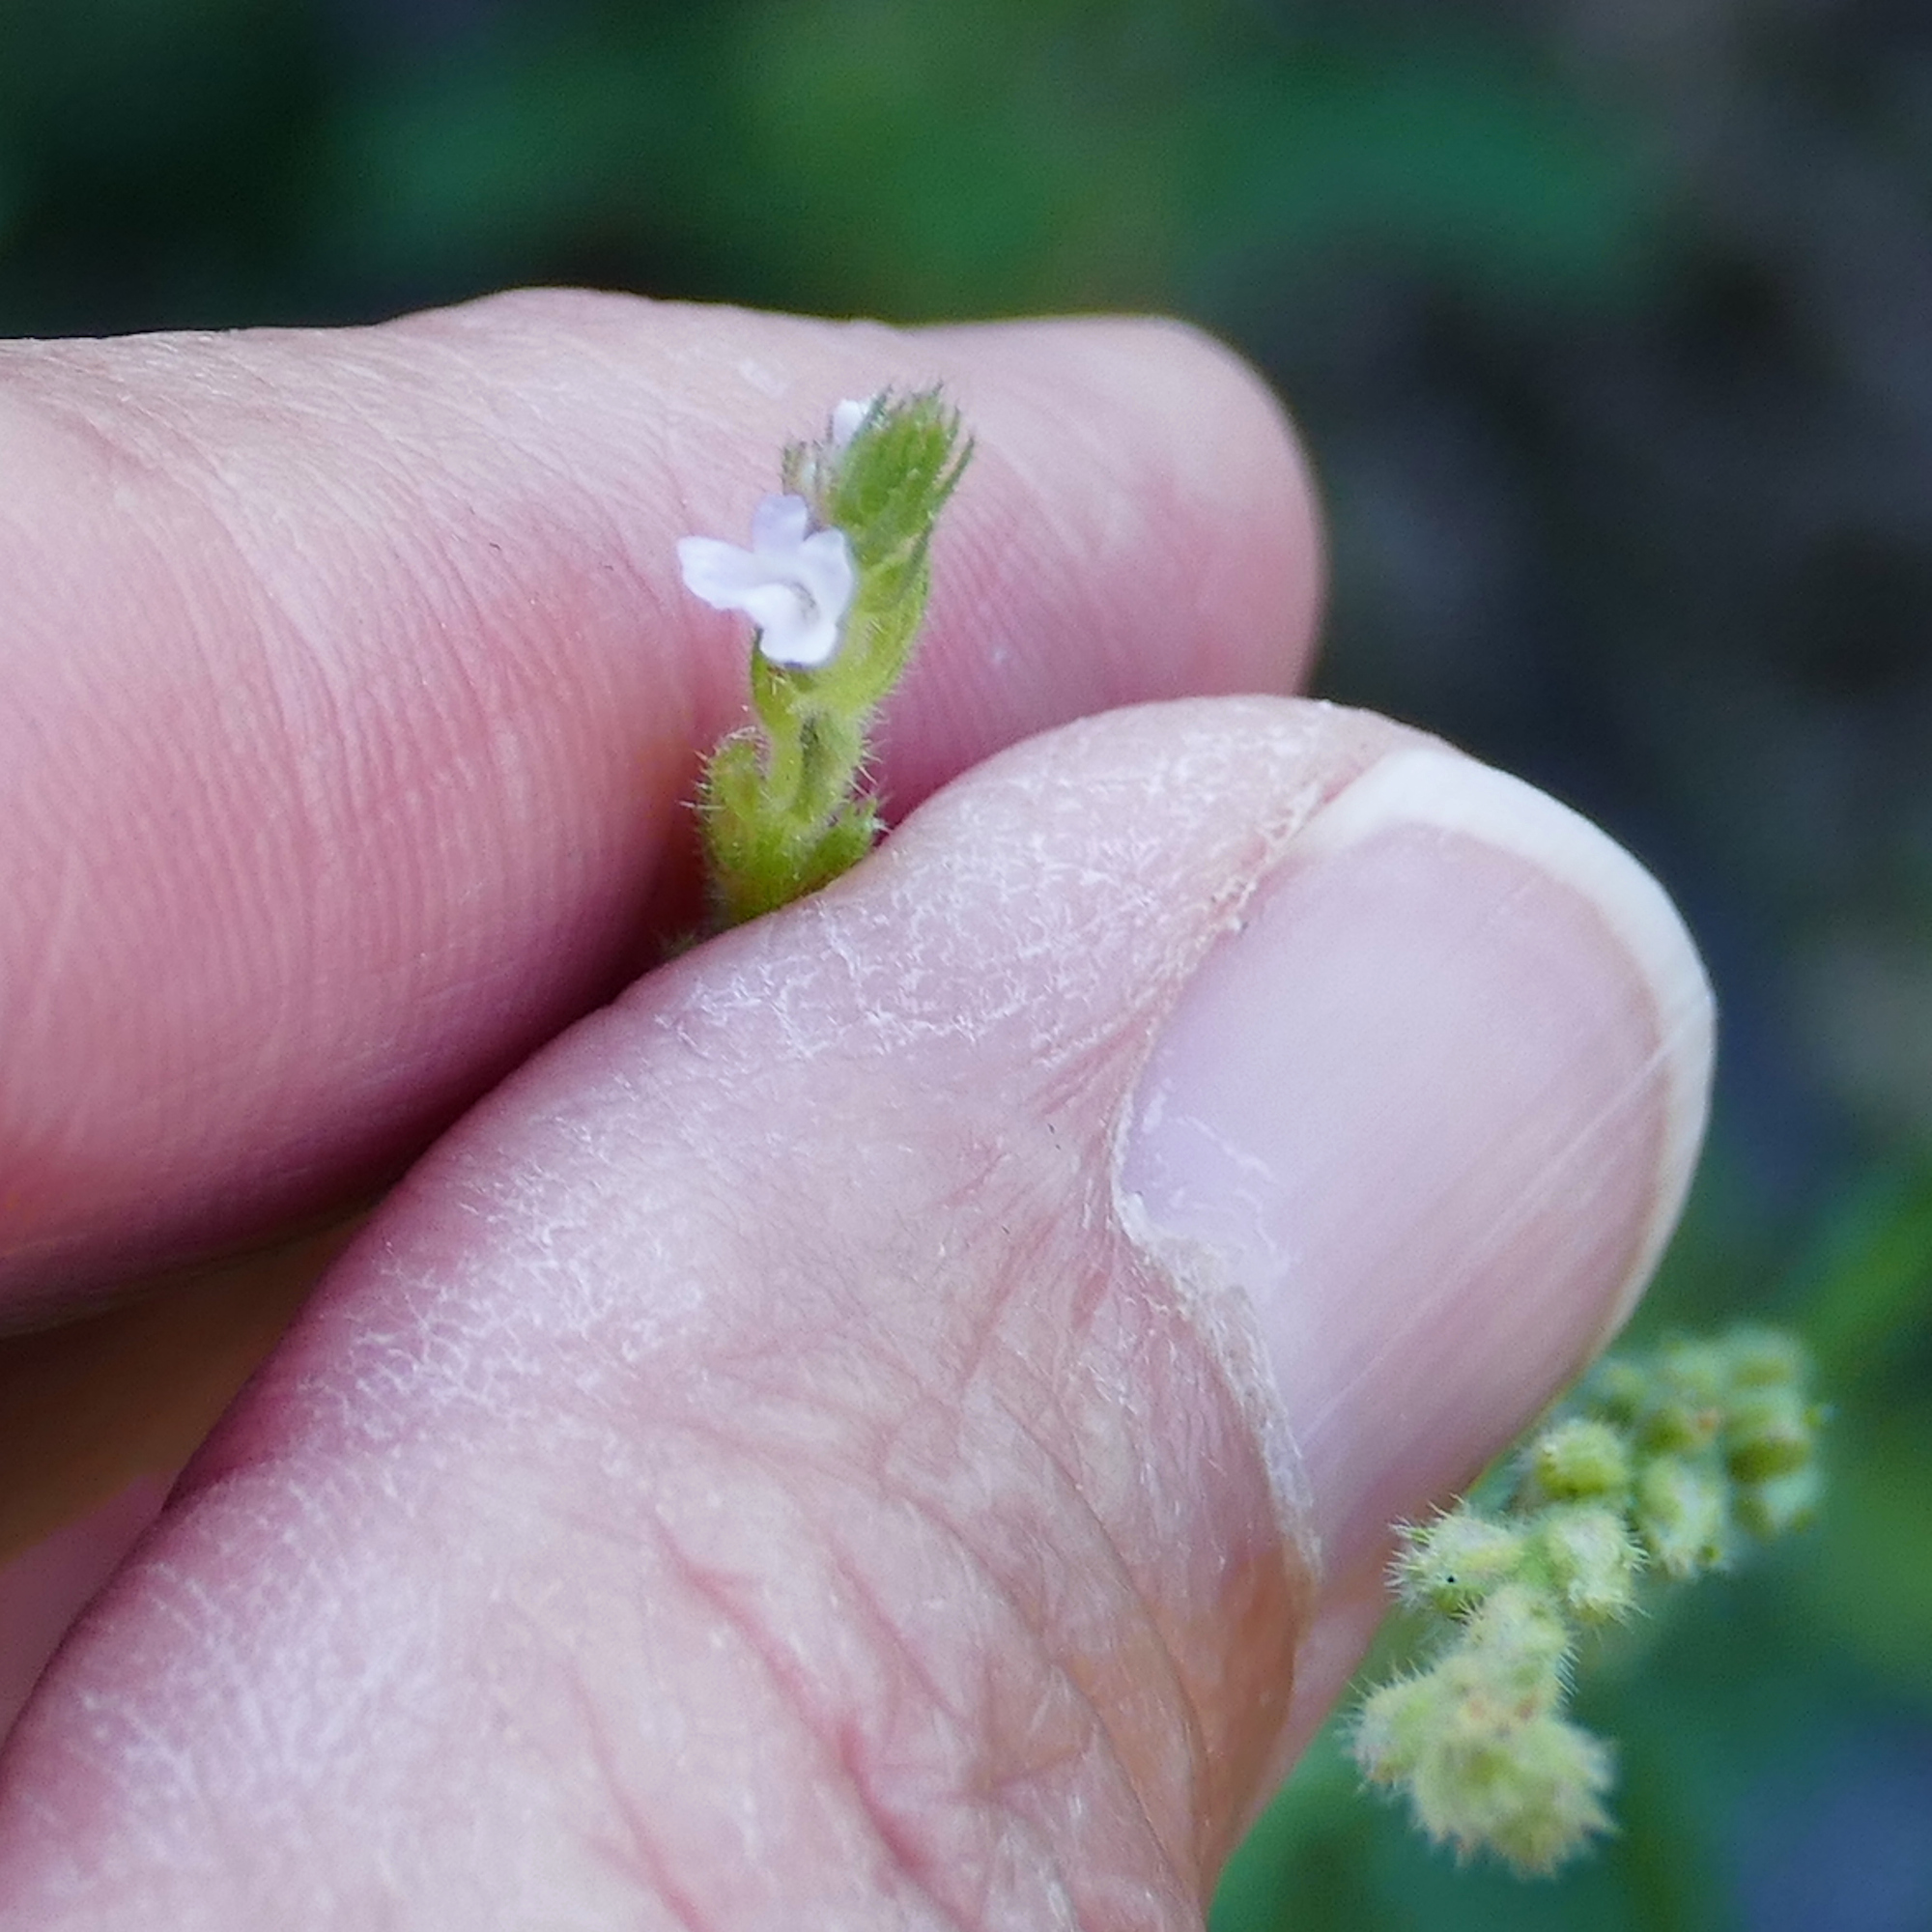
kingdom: Plantae
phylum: Tracheophyta
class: Magnoliopsida
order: Lamiales
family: Verbenaceae
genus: Verbena
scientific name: Verbena neomexicana
